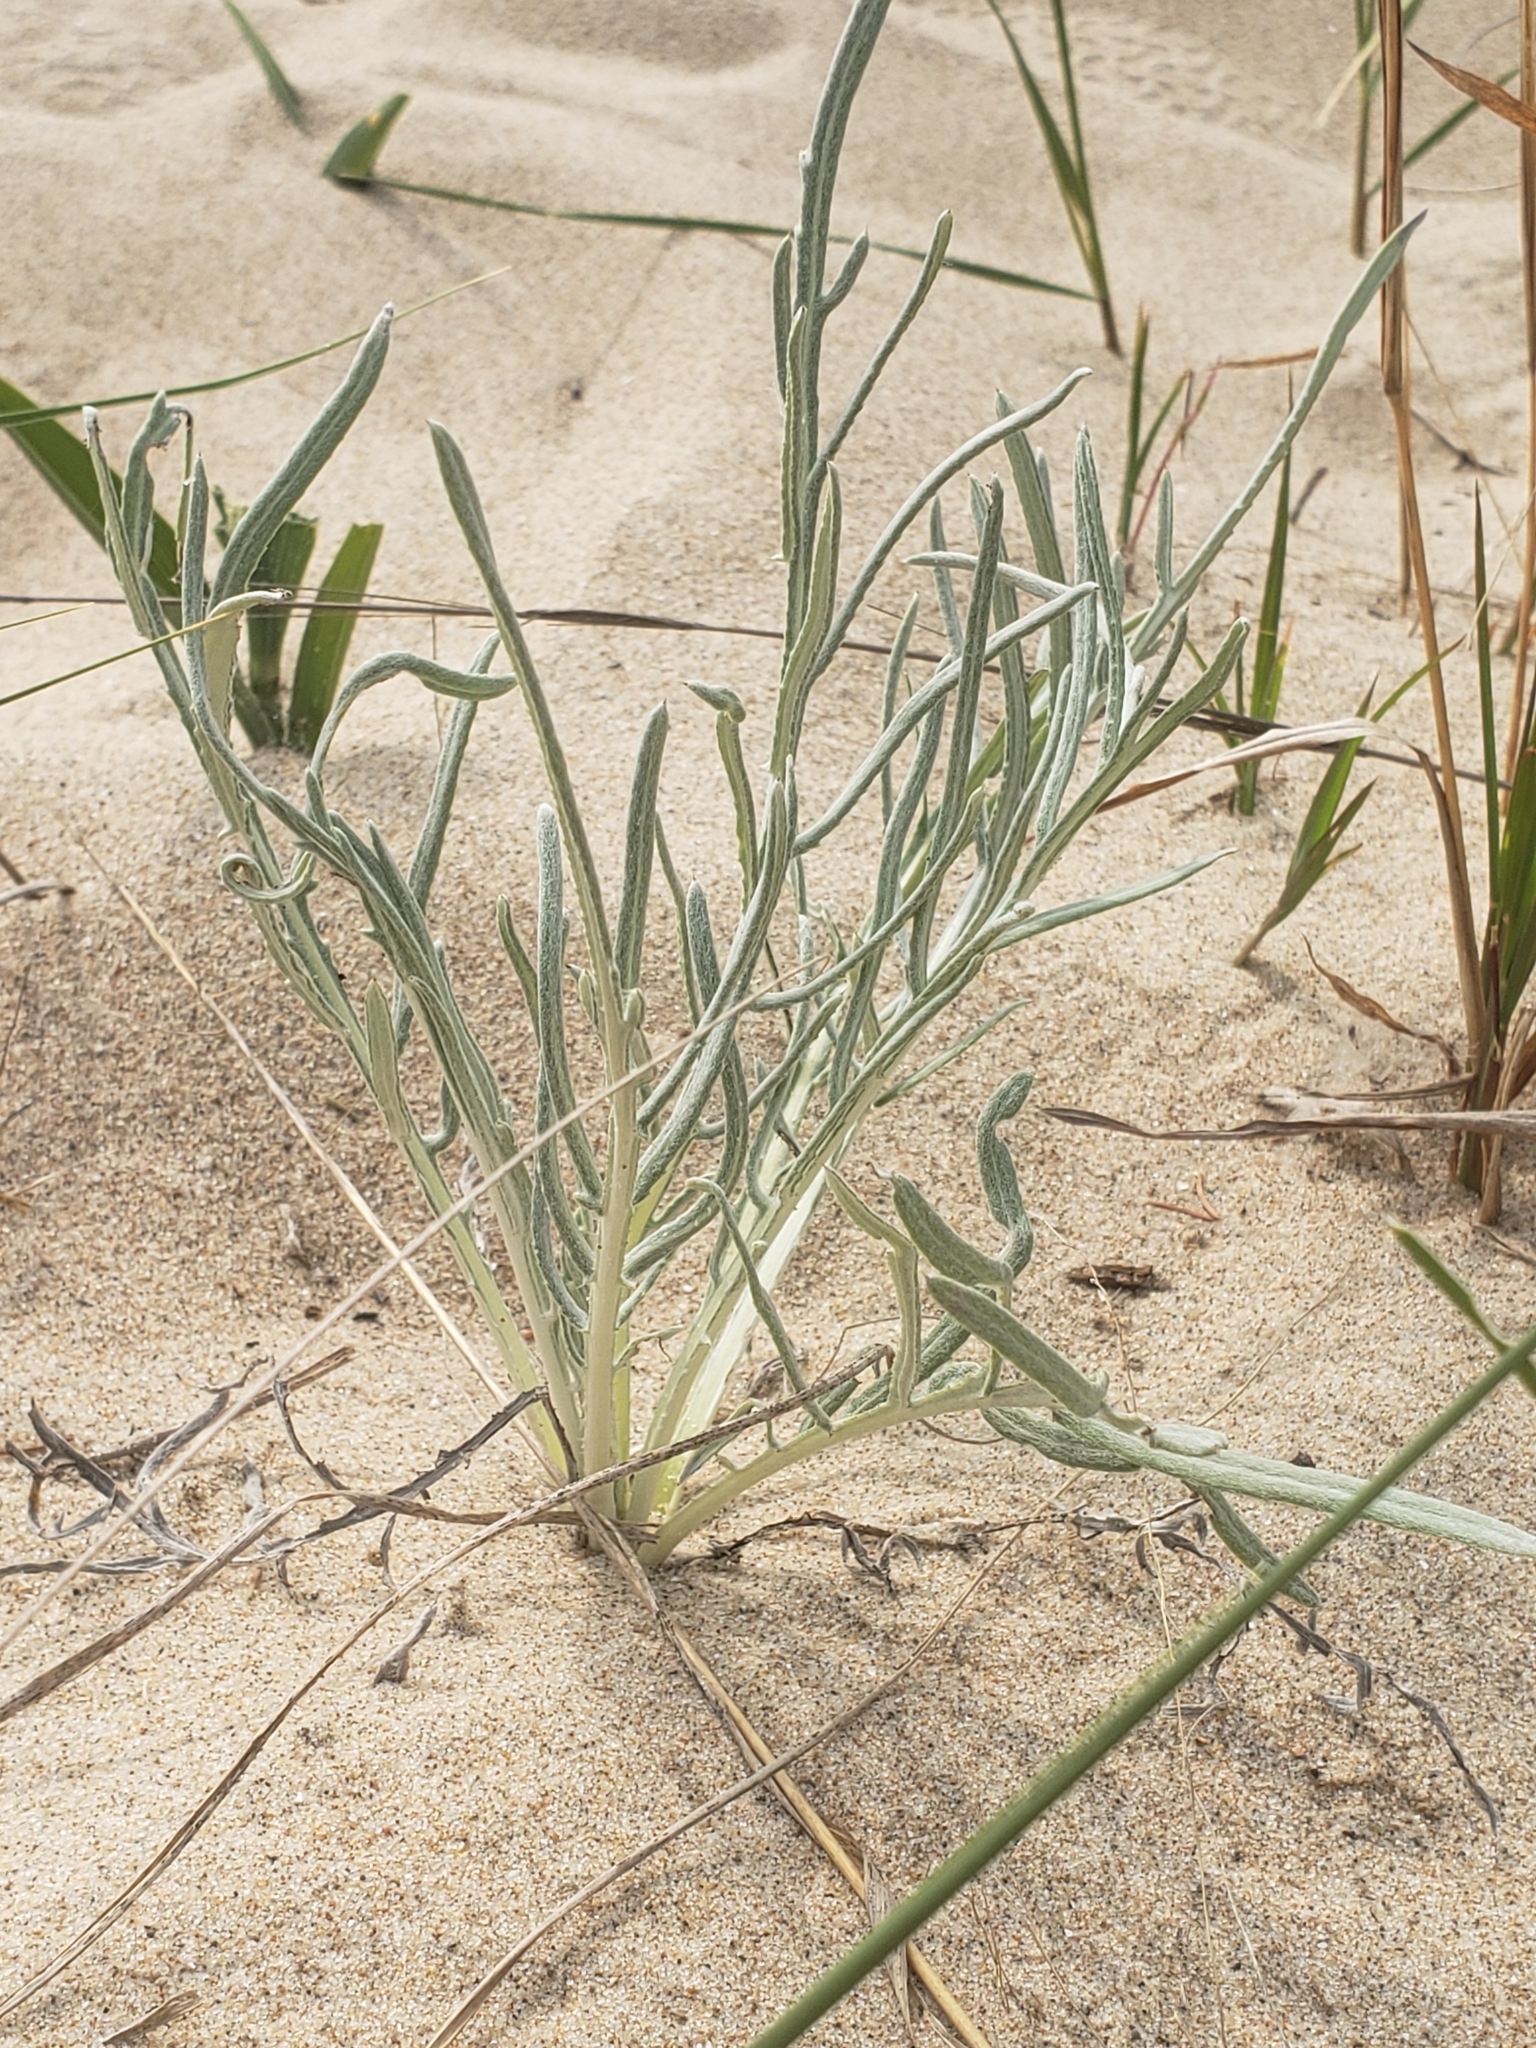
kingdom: Plantae
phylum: Tracheophyta
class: Magnoliopsida
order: Asterales
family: Asteraceae
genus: Cirsium
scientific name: Cirsium pitcheri
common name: Dune thistle
